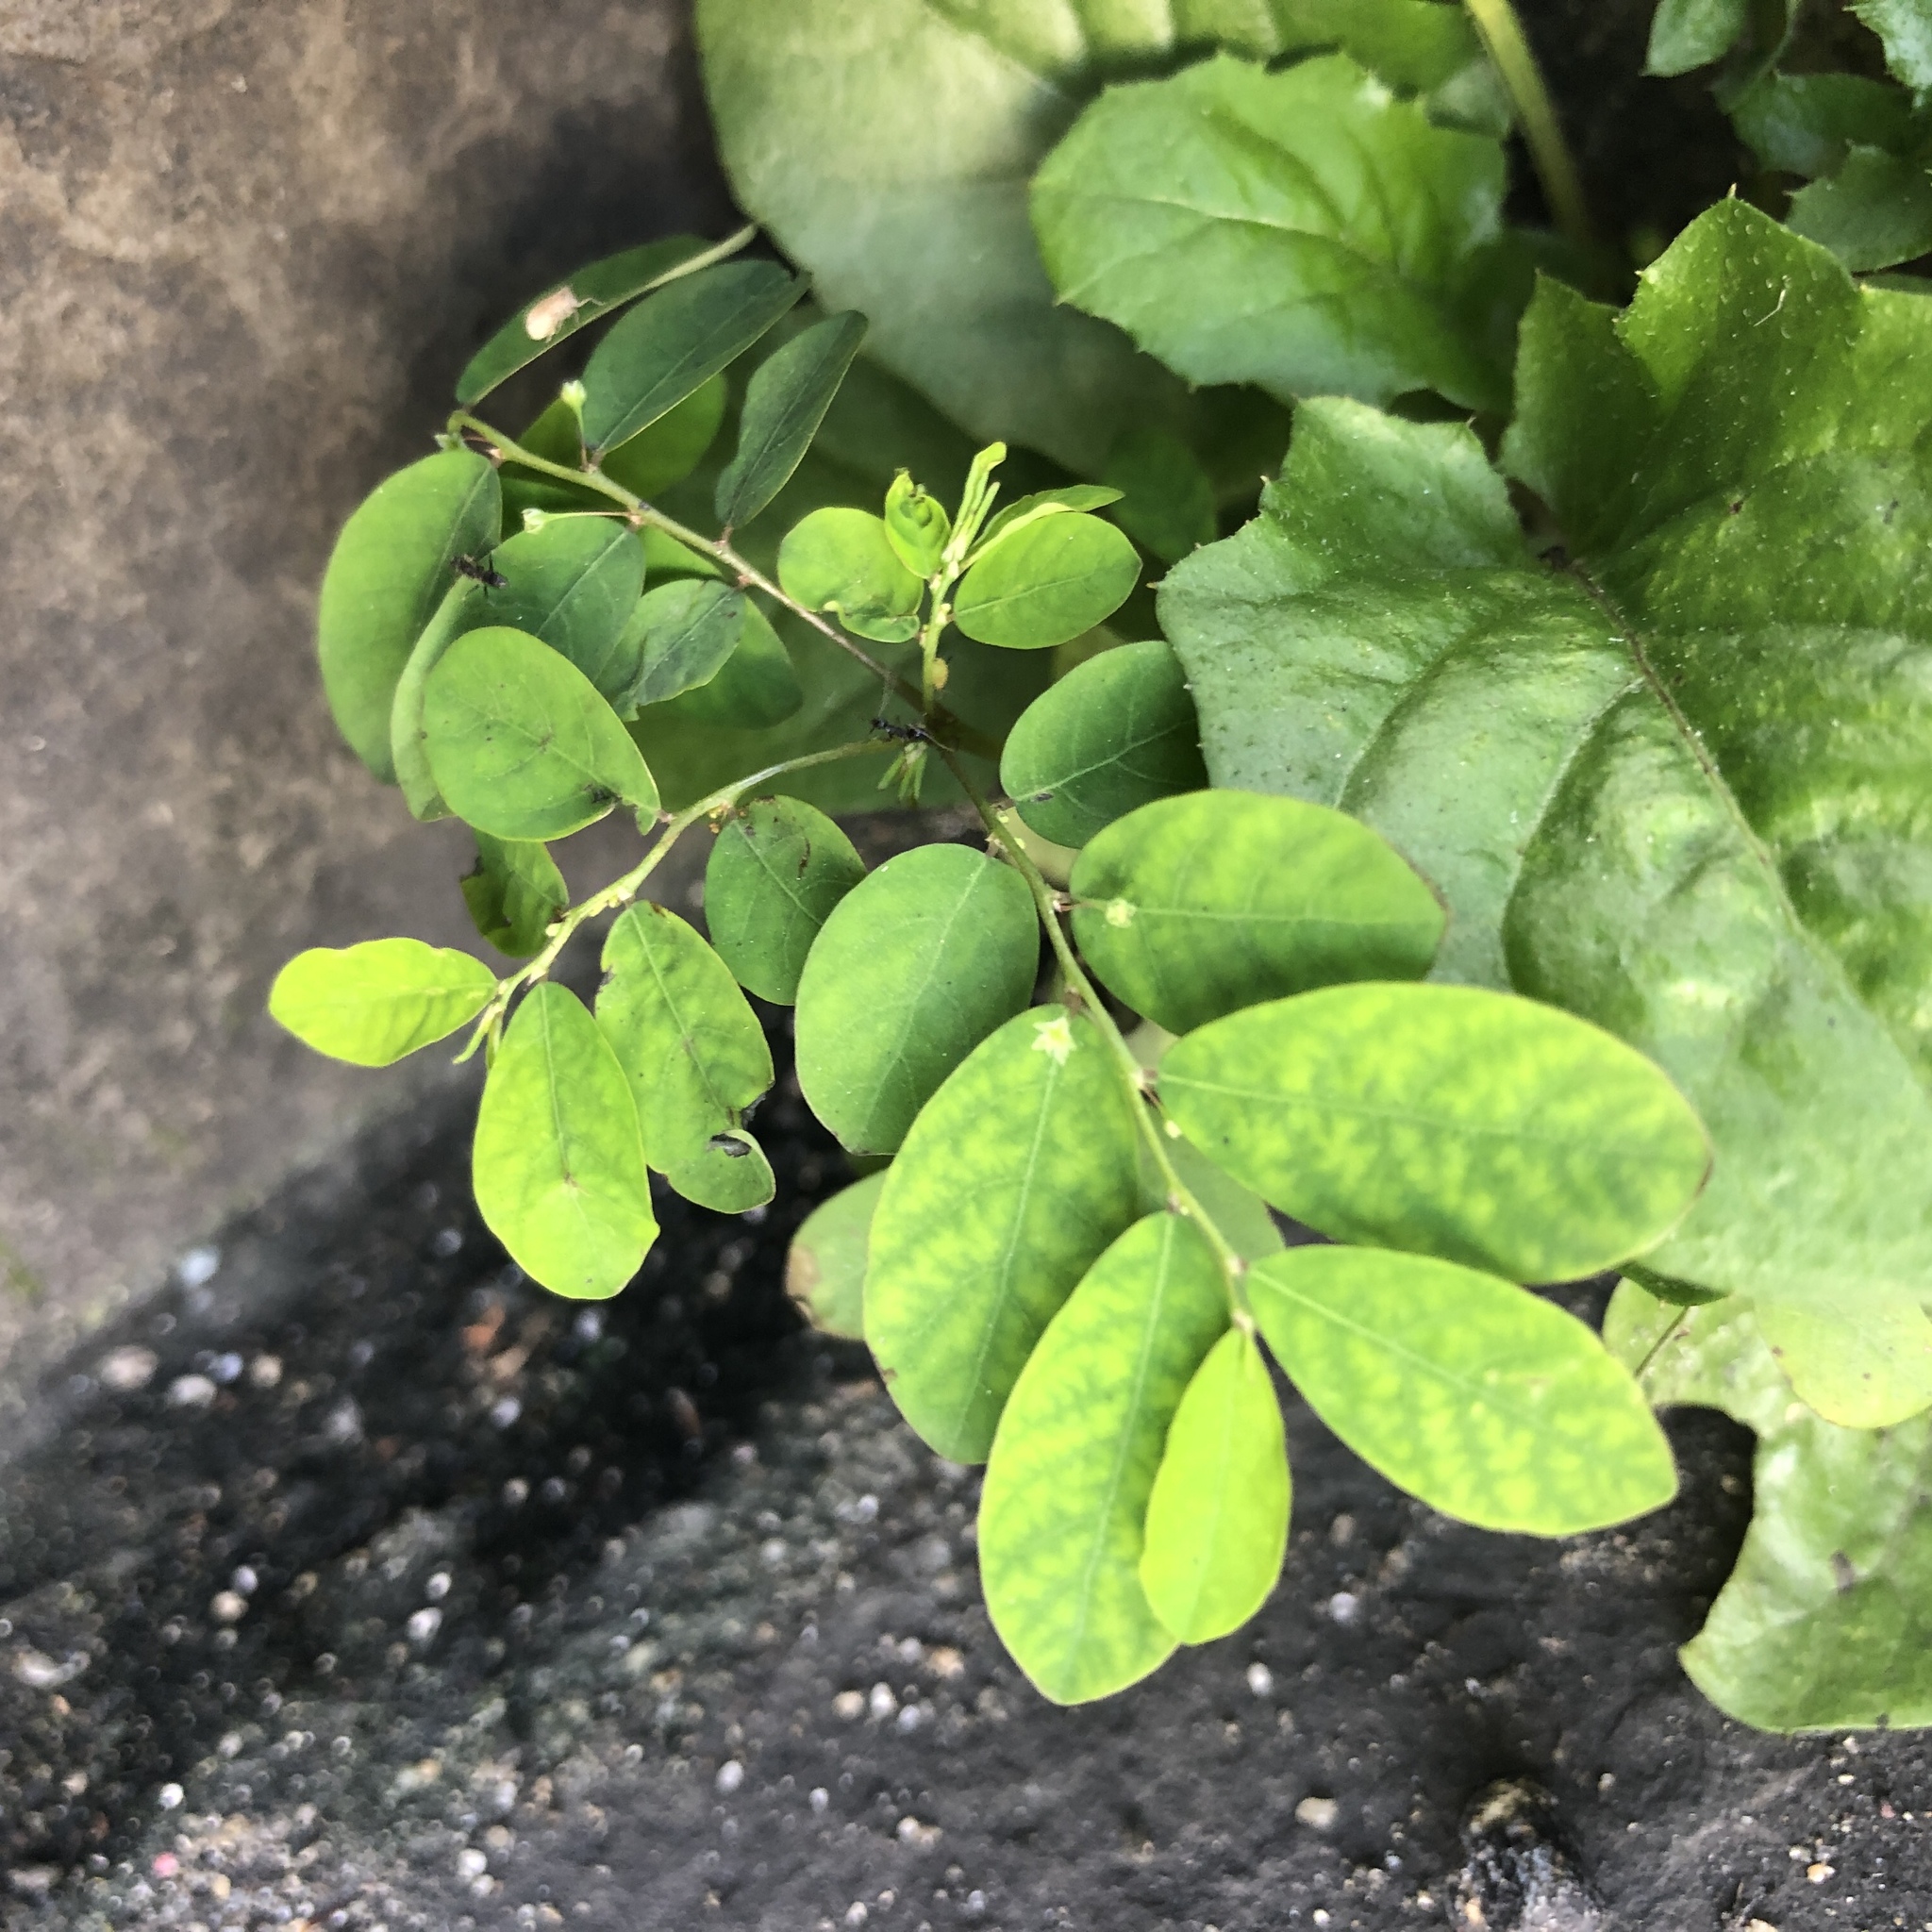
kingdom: Plantae
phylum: Tracheophyta
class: Magnoliopsida
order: Malpighiales
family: Phyllanthaceae
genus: Phyllanthus
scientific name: Phyllanthus tenellus
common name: Mascarene island leaf-flower
